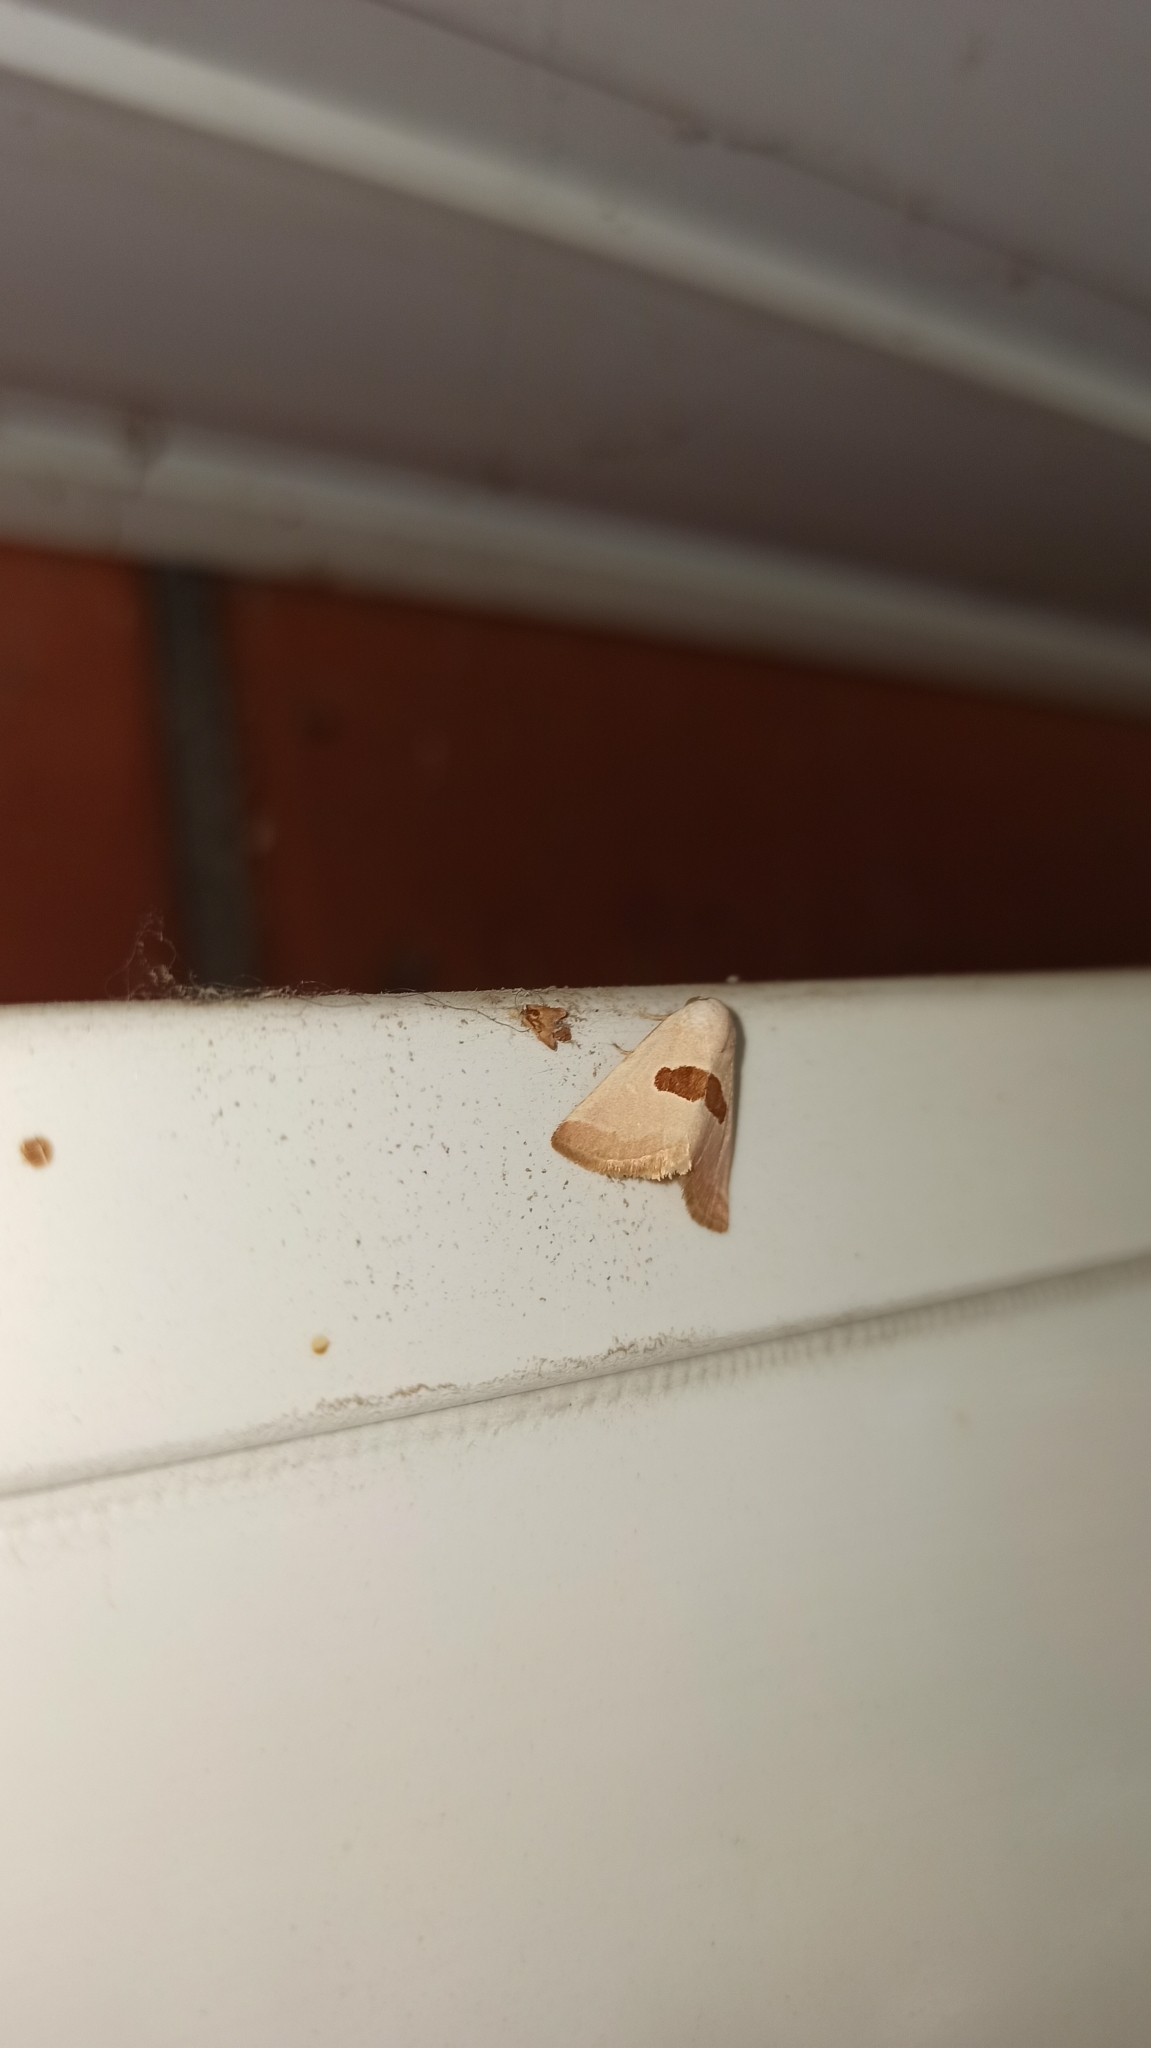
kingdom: Animalia
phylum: Arthropoda
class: Insecta
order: Lepidoptera
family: Noctuidae
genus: Calymma
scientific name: Calymma communimacula
